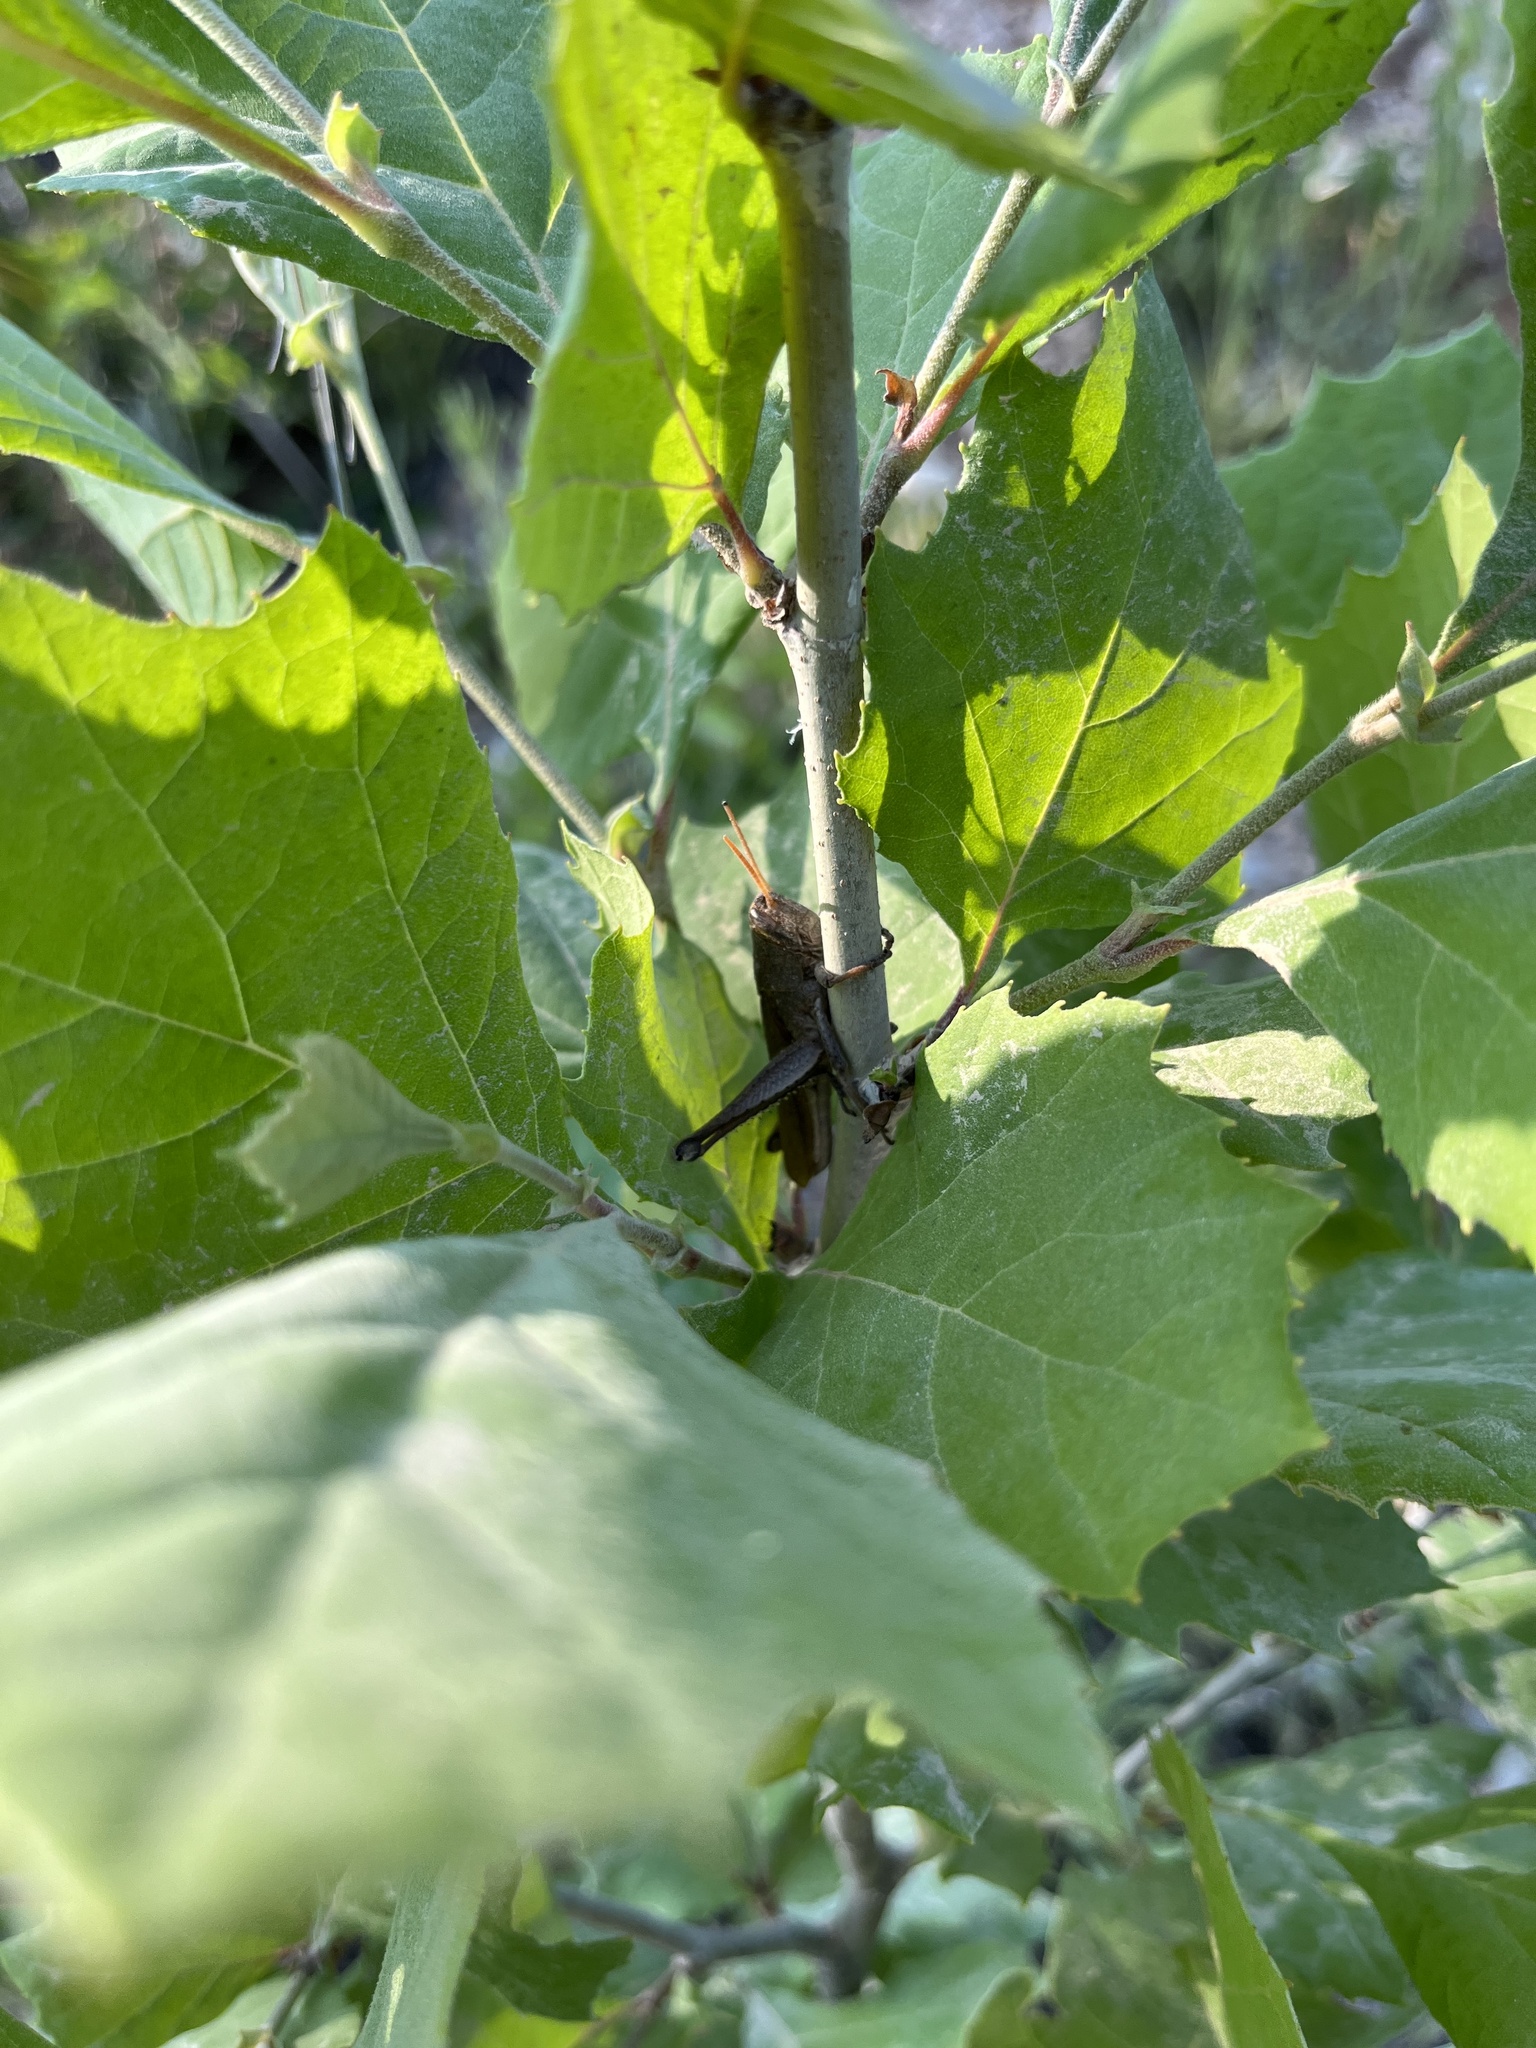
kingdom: Animalia
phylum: Arthropoda
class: Insecta
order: Orthoptera
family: Acrididae
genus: Schistocerca
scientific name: Schistocerca damnifica
